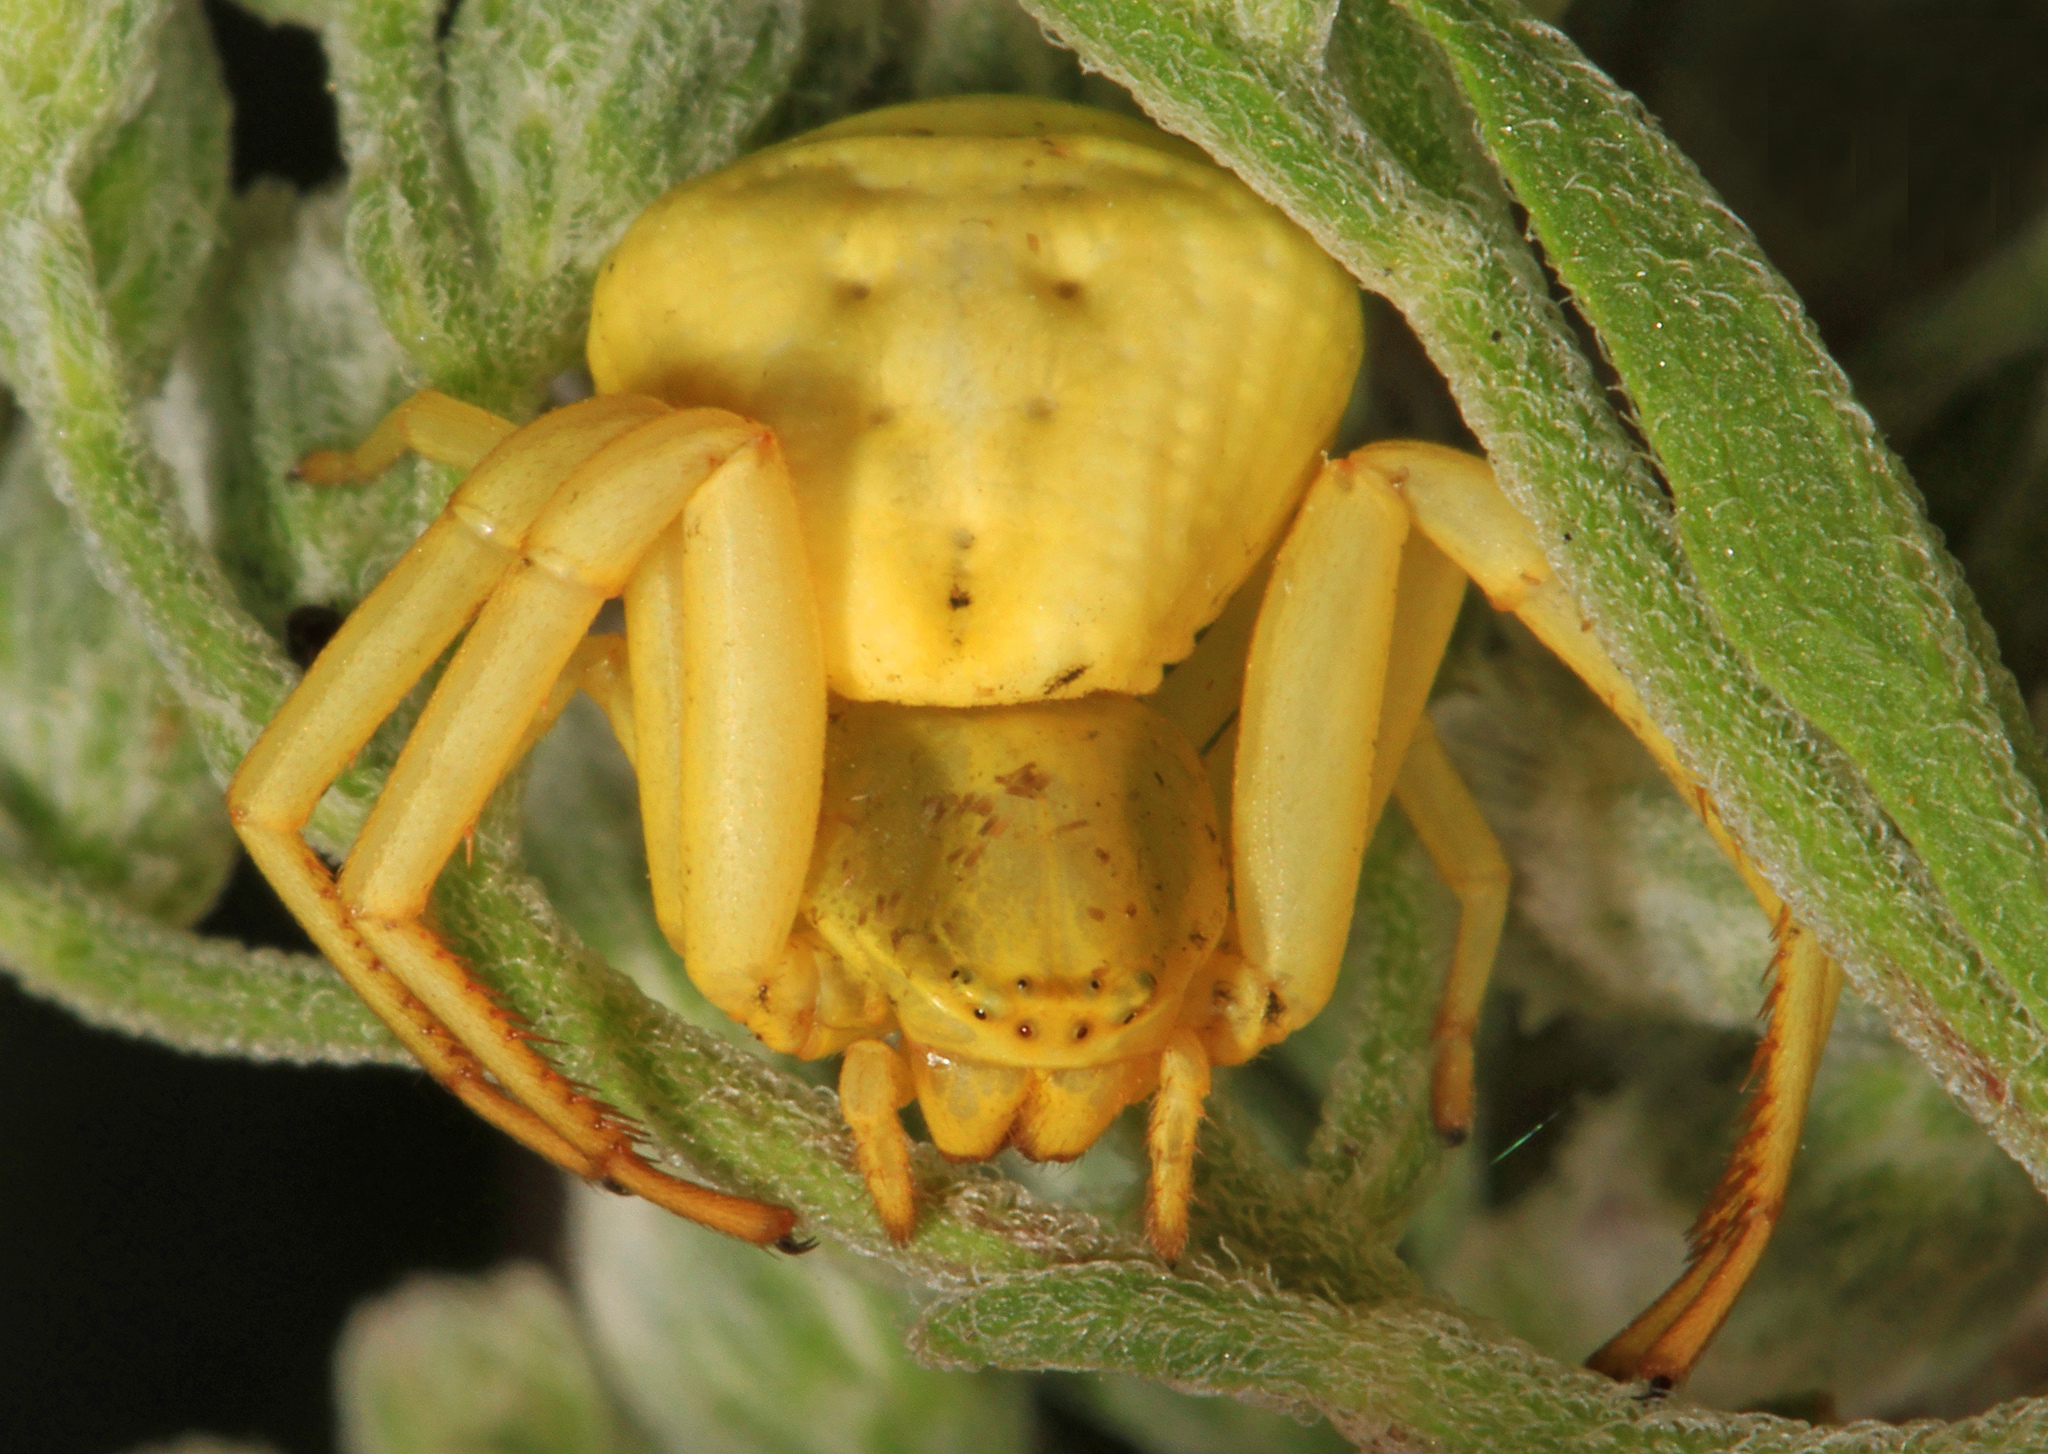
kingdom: Animalia
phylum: Arthropoda
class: Arachnida
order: Araneae
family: Thomisidae
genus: Misumenoides
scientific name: Misumenoides formosipes
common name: White-banded crab spider
